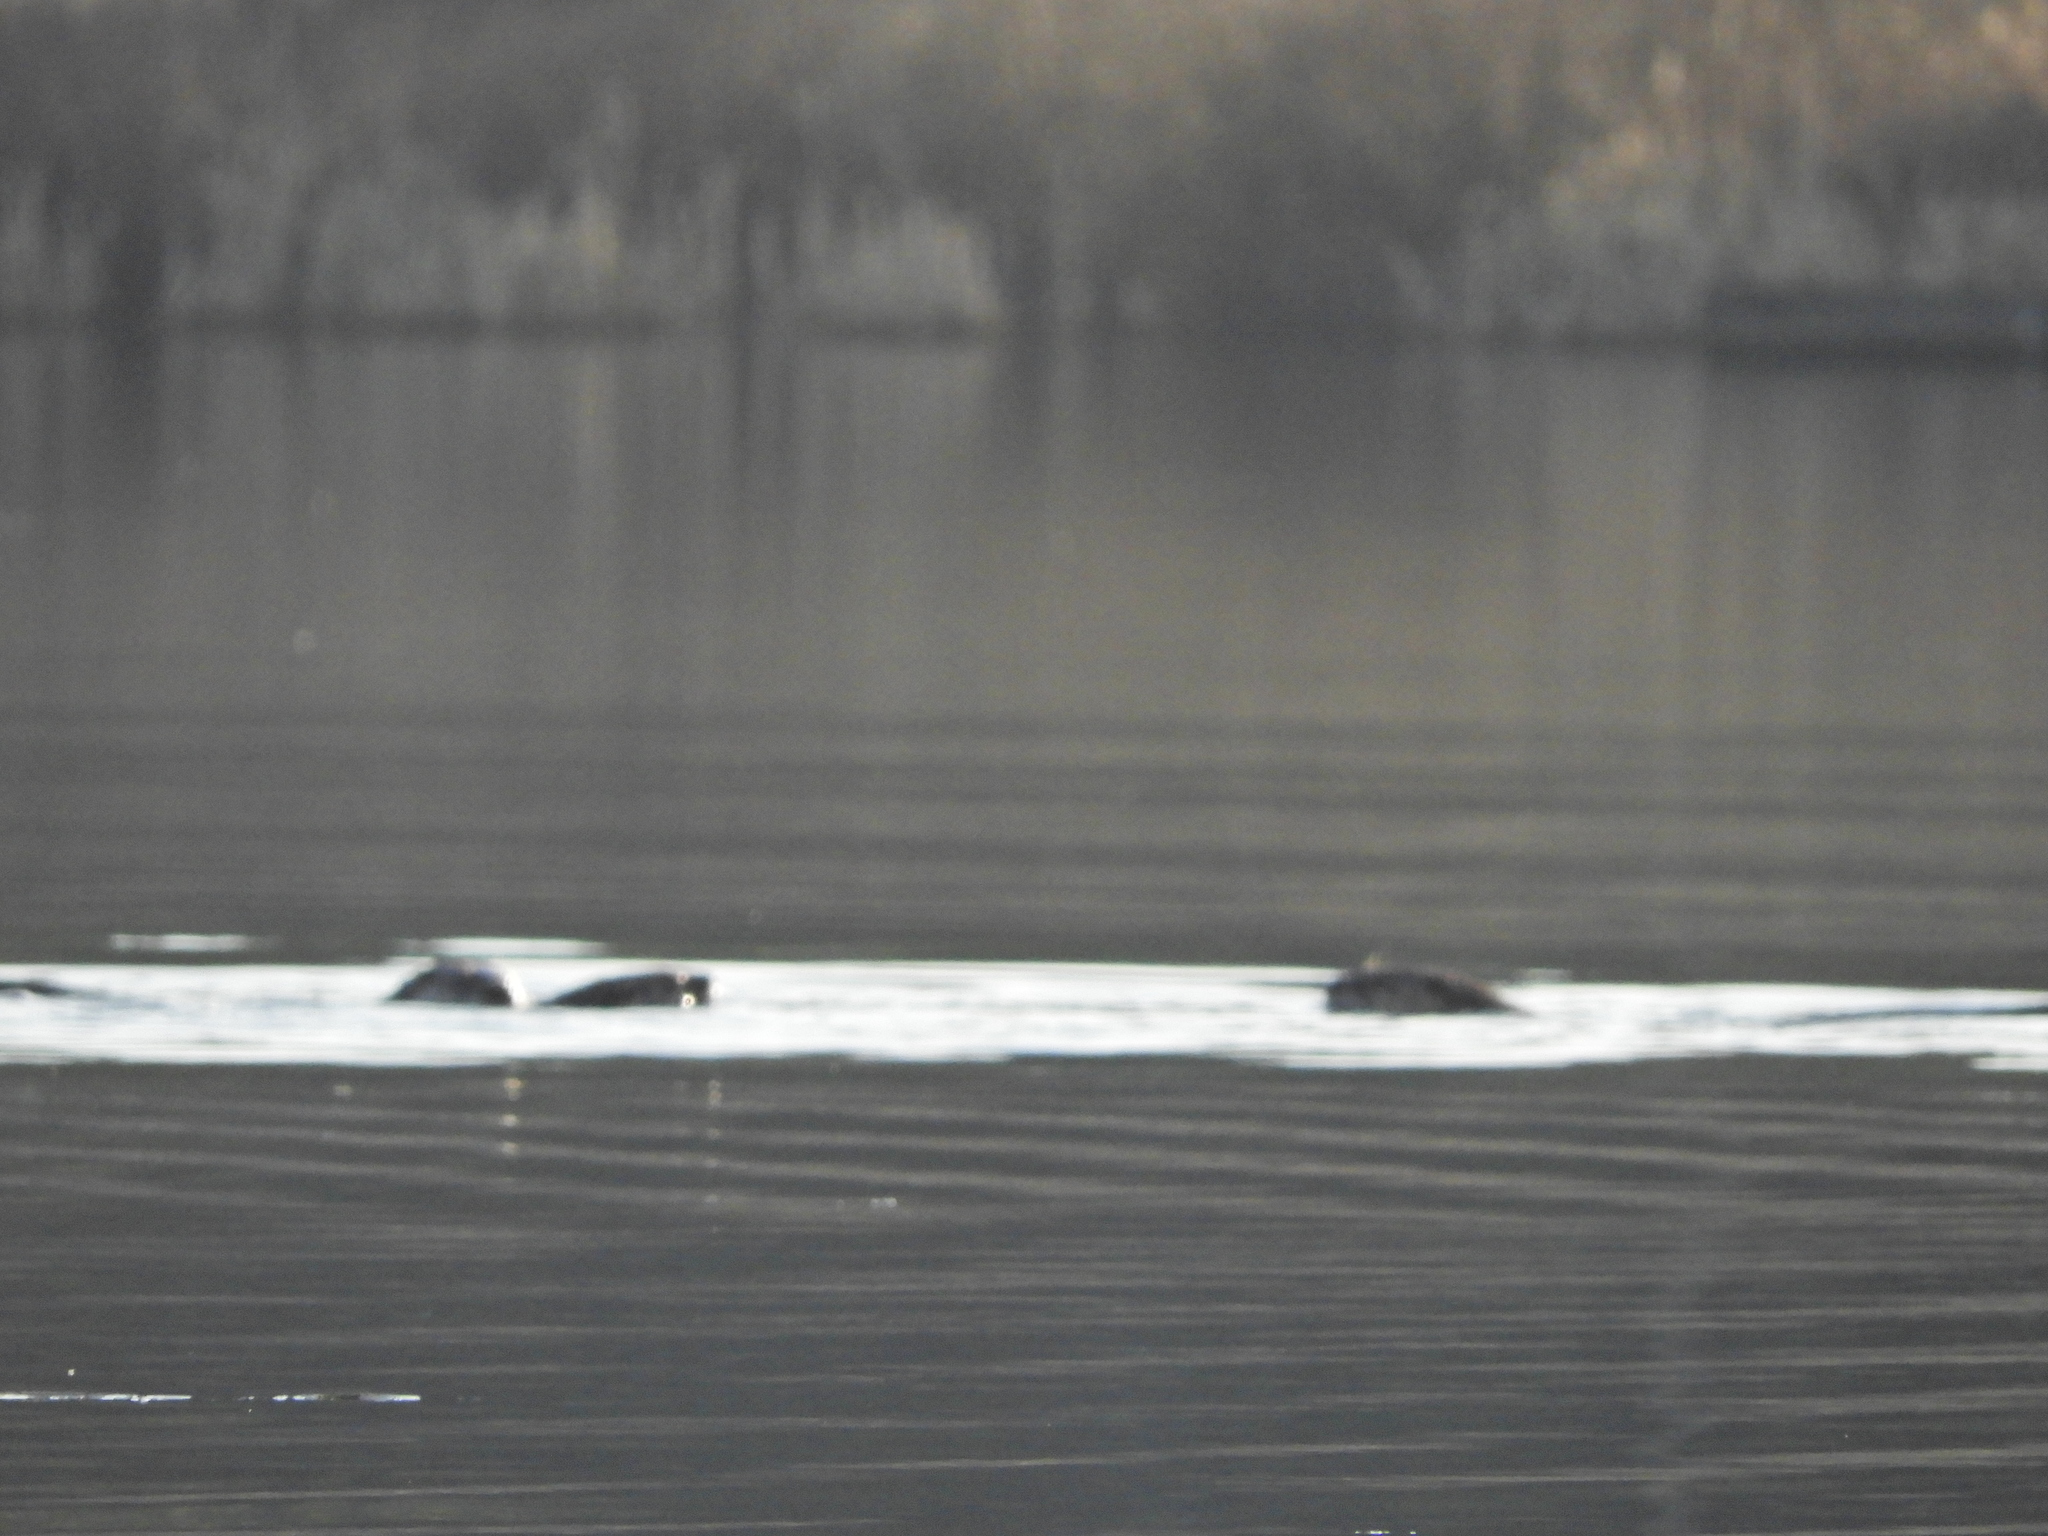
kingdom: Animalia
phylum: Chordata
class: Mammalia
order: Carnivora
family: Mustelidae
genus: Lontra
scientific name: Lontra canadensis
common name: North american river otter
